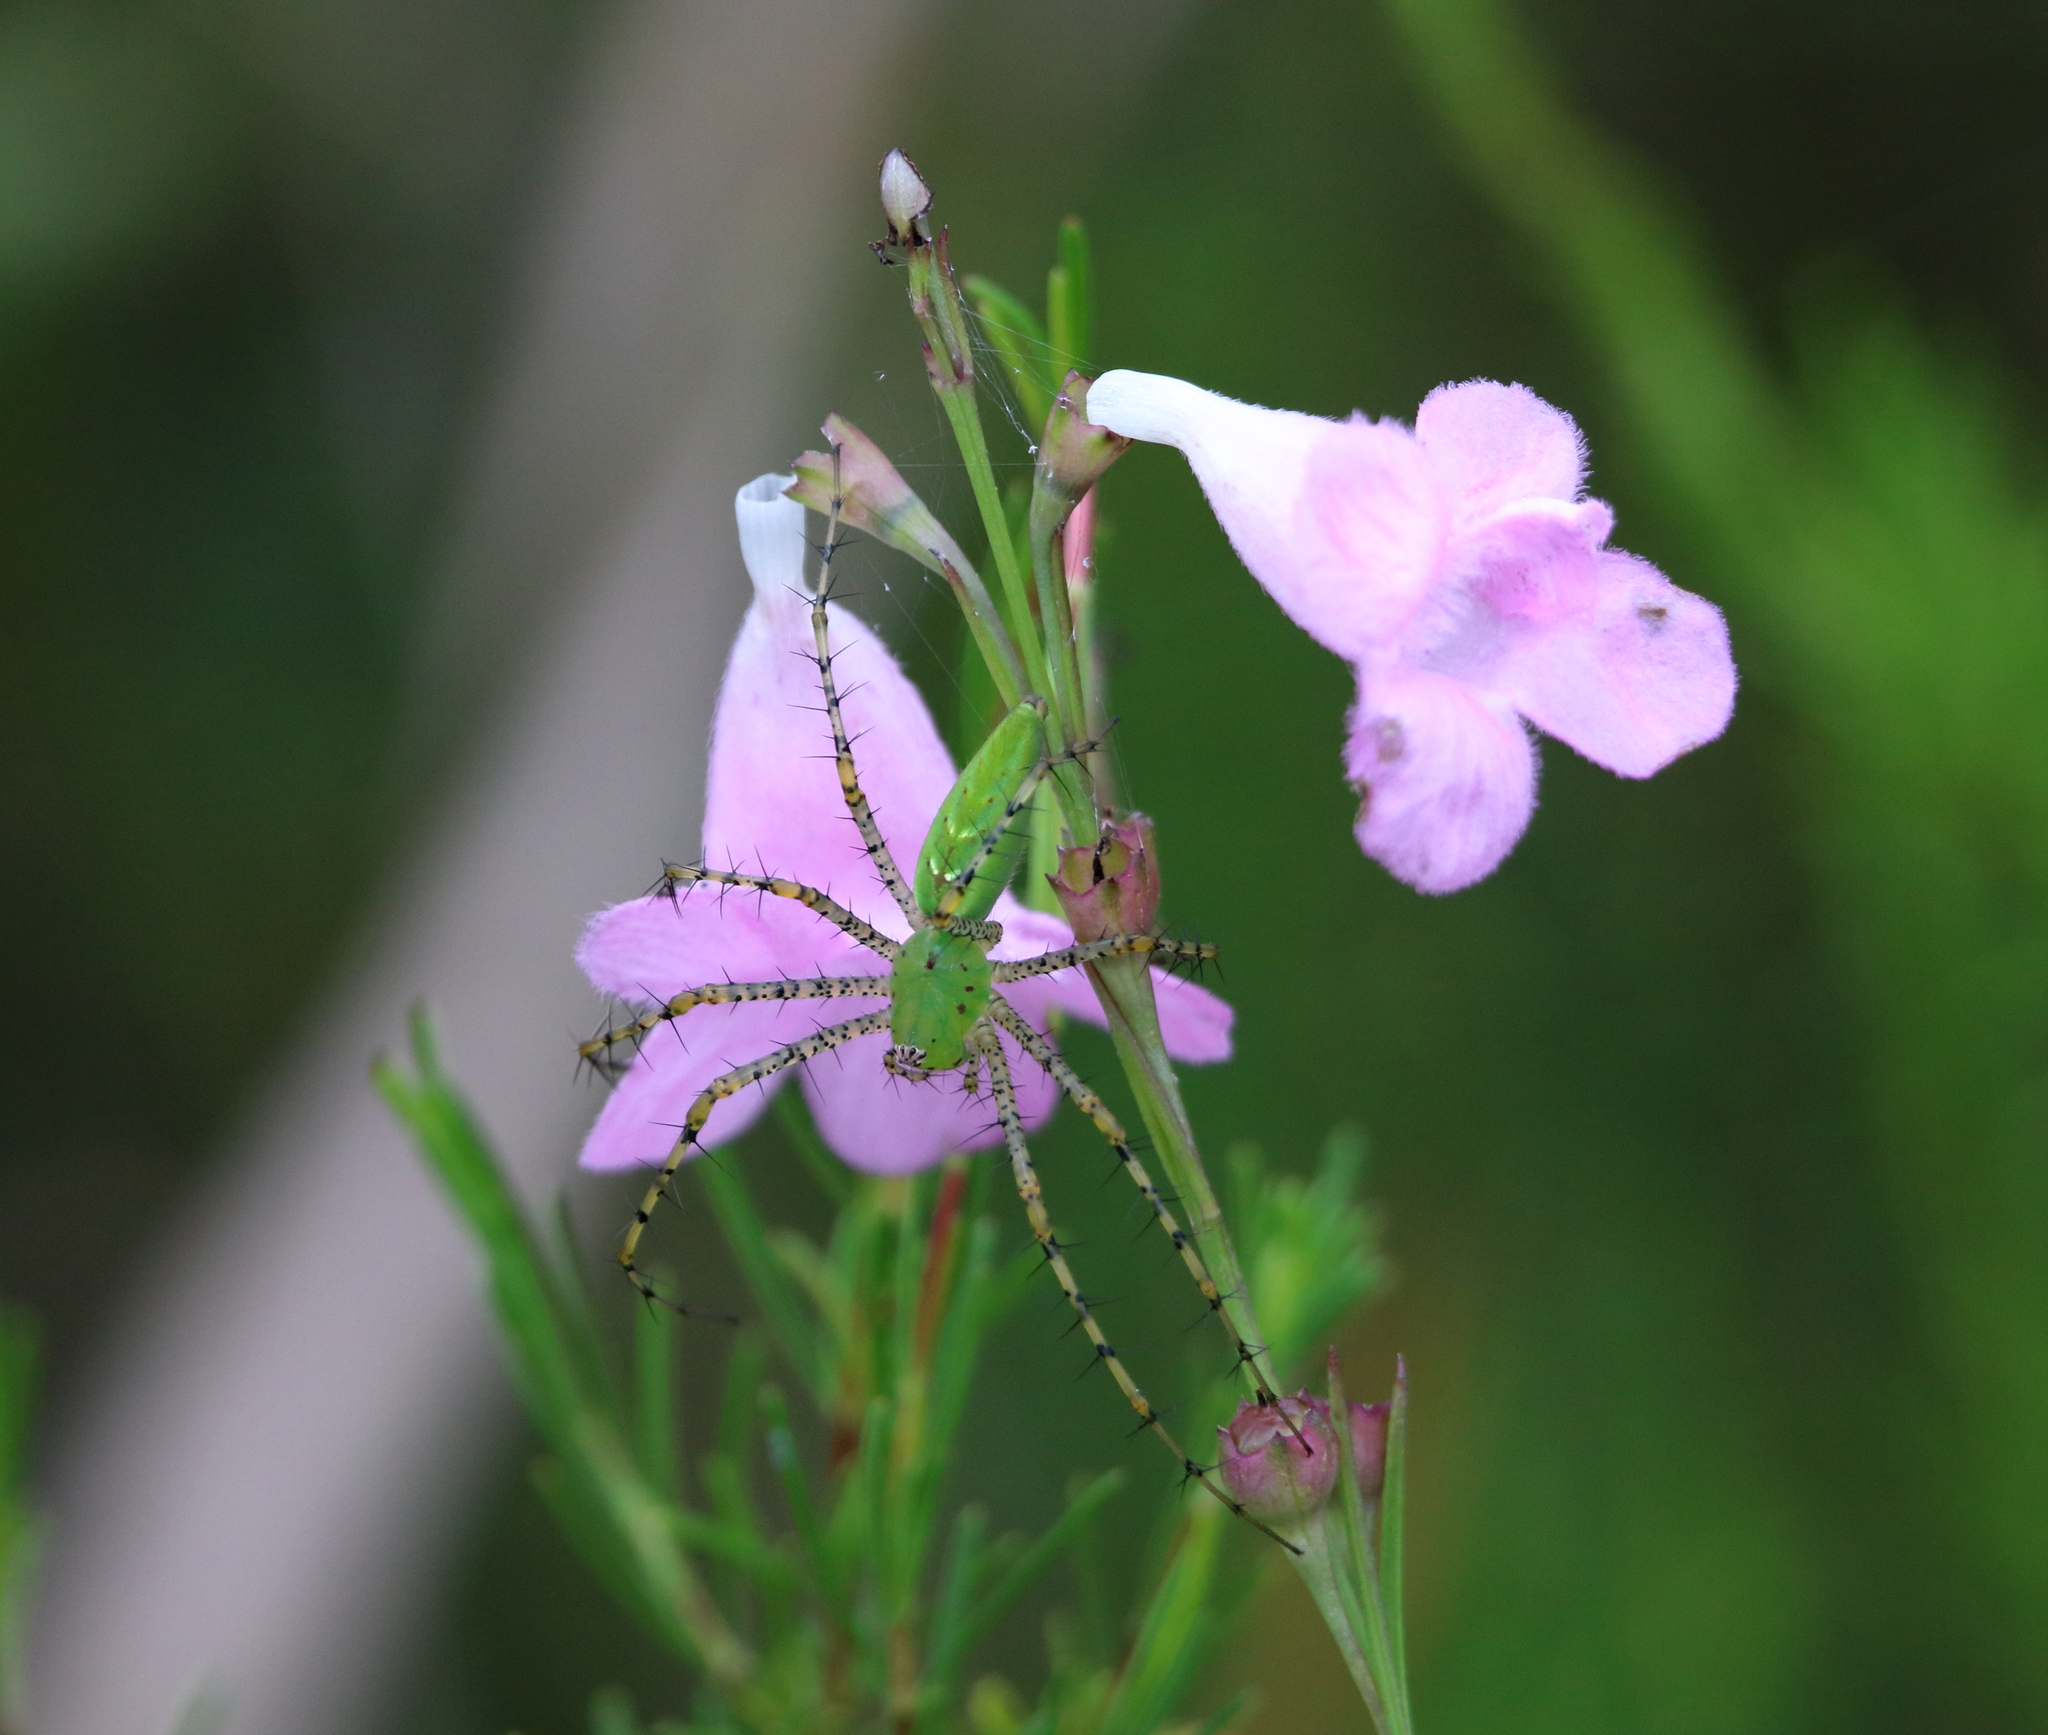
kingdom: Animalia
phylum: Arthropoda
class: Arachnida
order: Araneae
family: Oxyopidae
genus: Peucetia
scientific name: Peucetia viridans
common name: Lynx spiders
